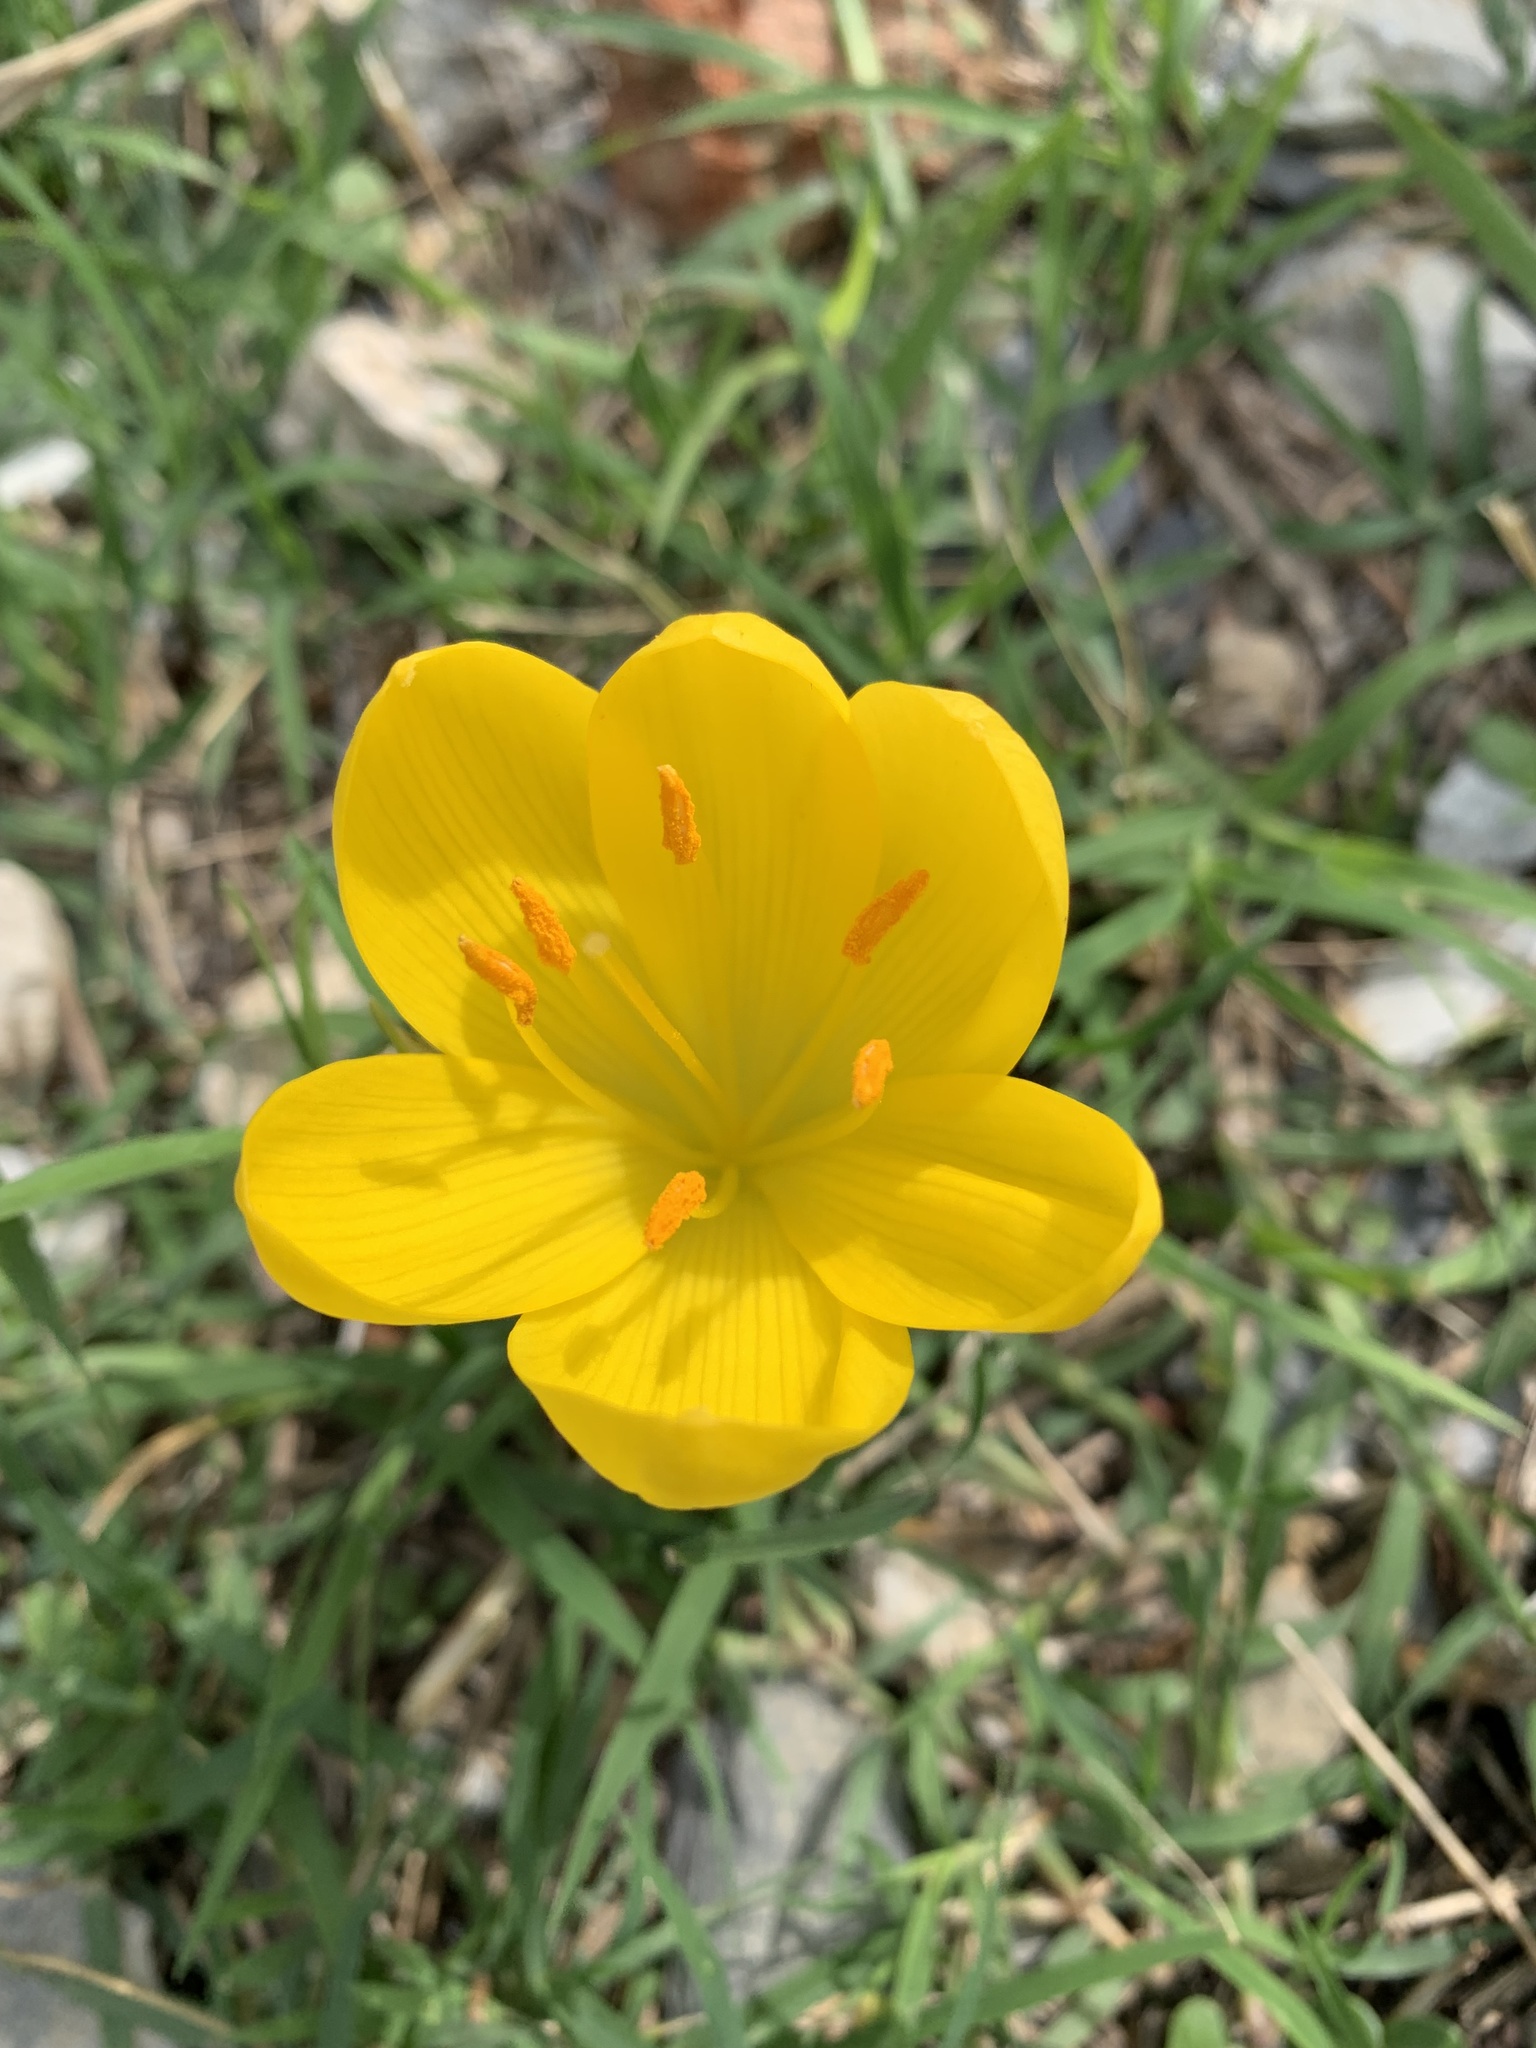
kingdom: Plantae
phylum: Tracheophyta
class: Liliopsida
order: Asparagales
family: Amaryllidaceae
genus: Sternbergia
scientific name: Sternbergia lutea
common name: Winter daffodil
